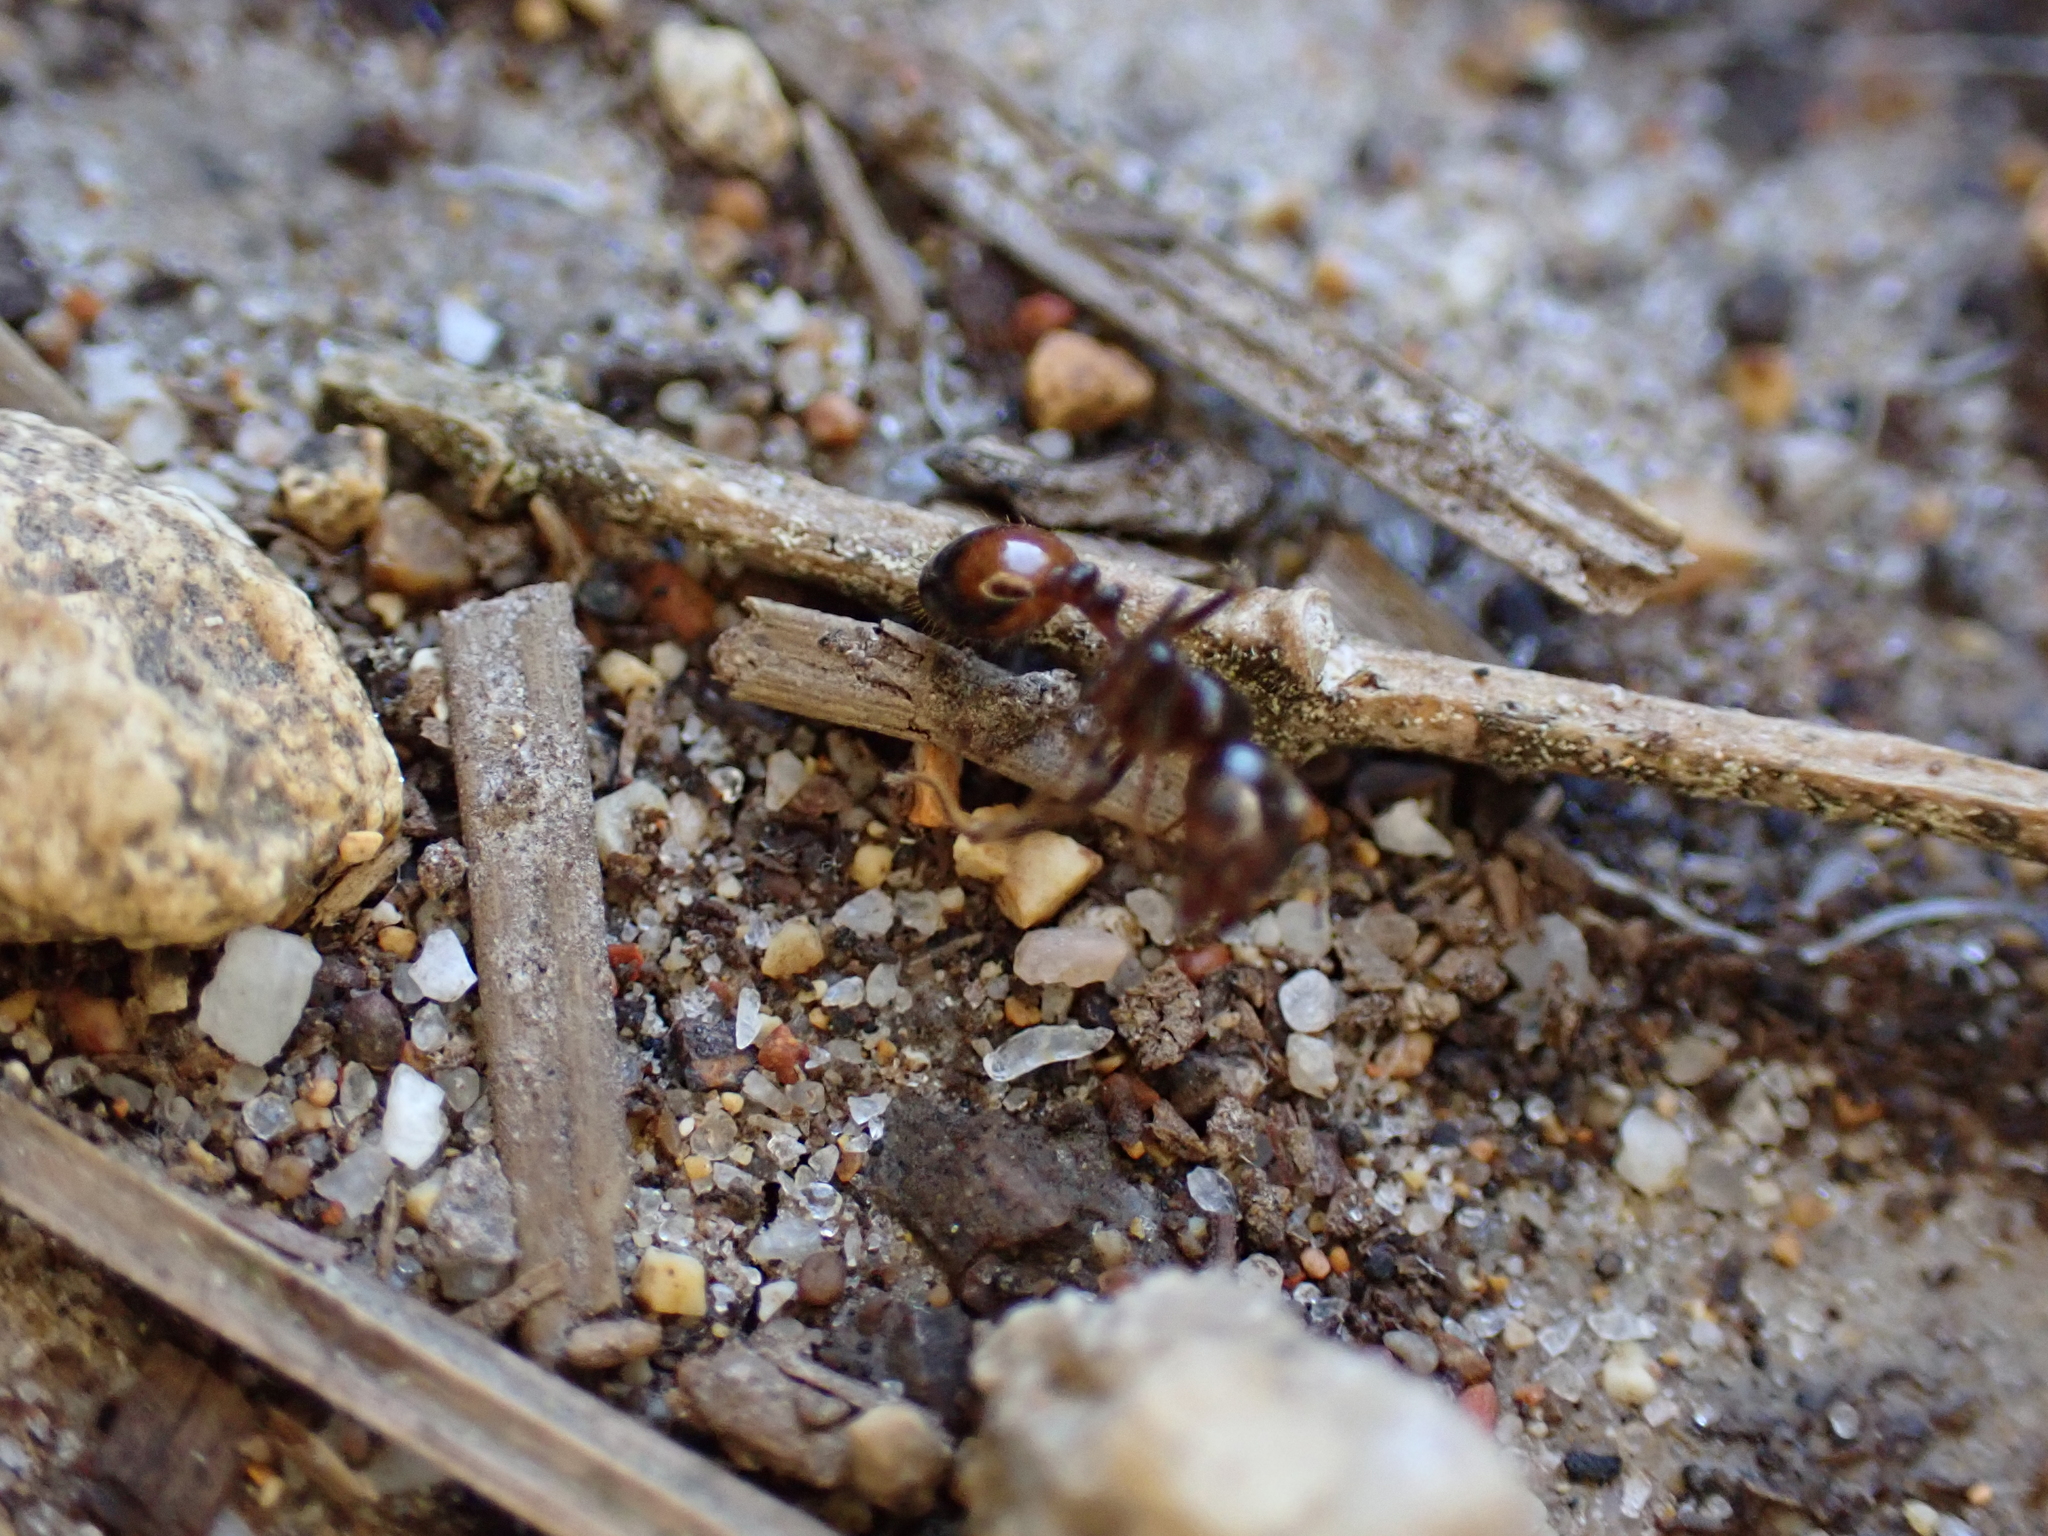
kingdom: Animalia
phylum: Arthropoda
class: Insecta
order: Hymenoptera
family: Formicidae
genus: Solenopsis
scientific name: Solenopsis
